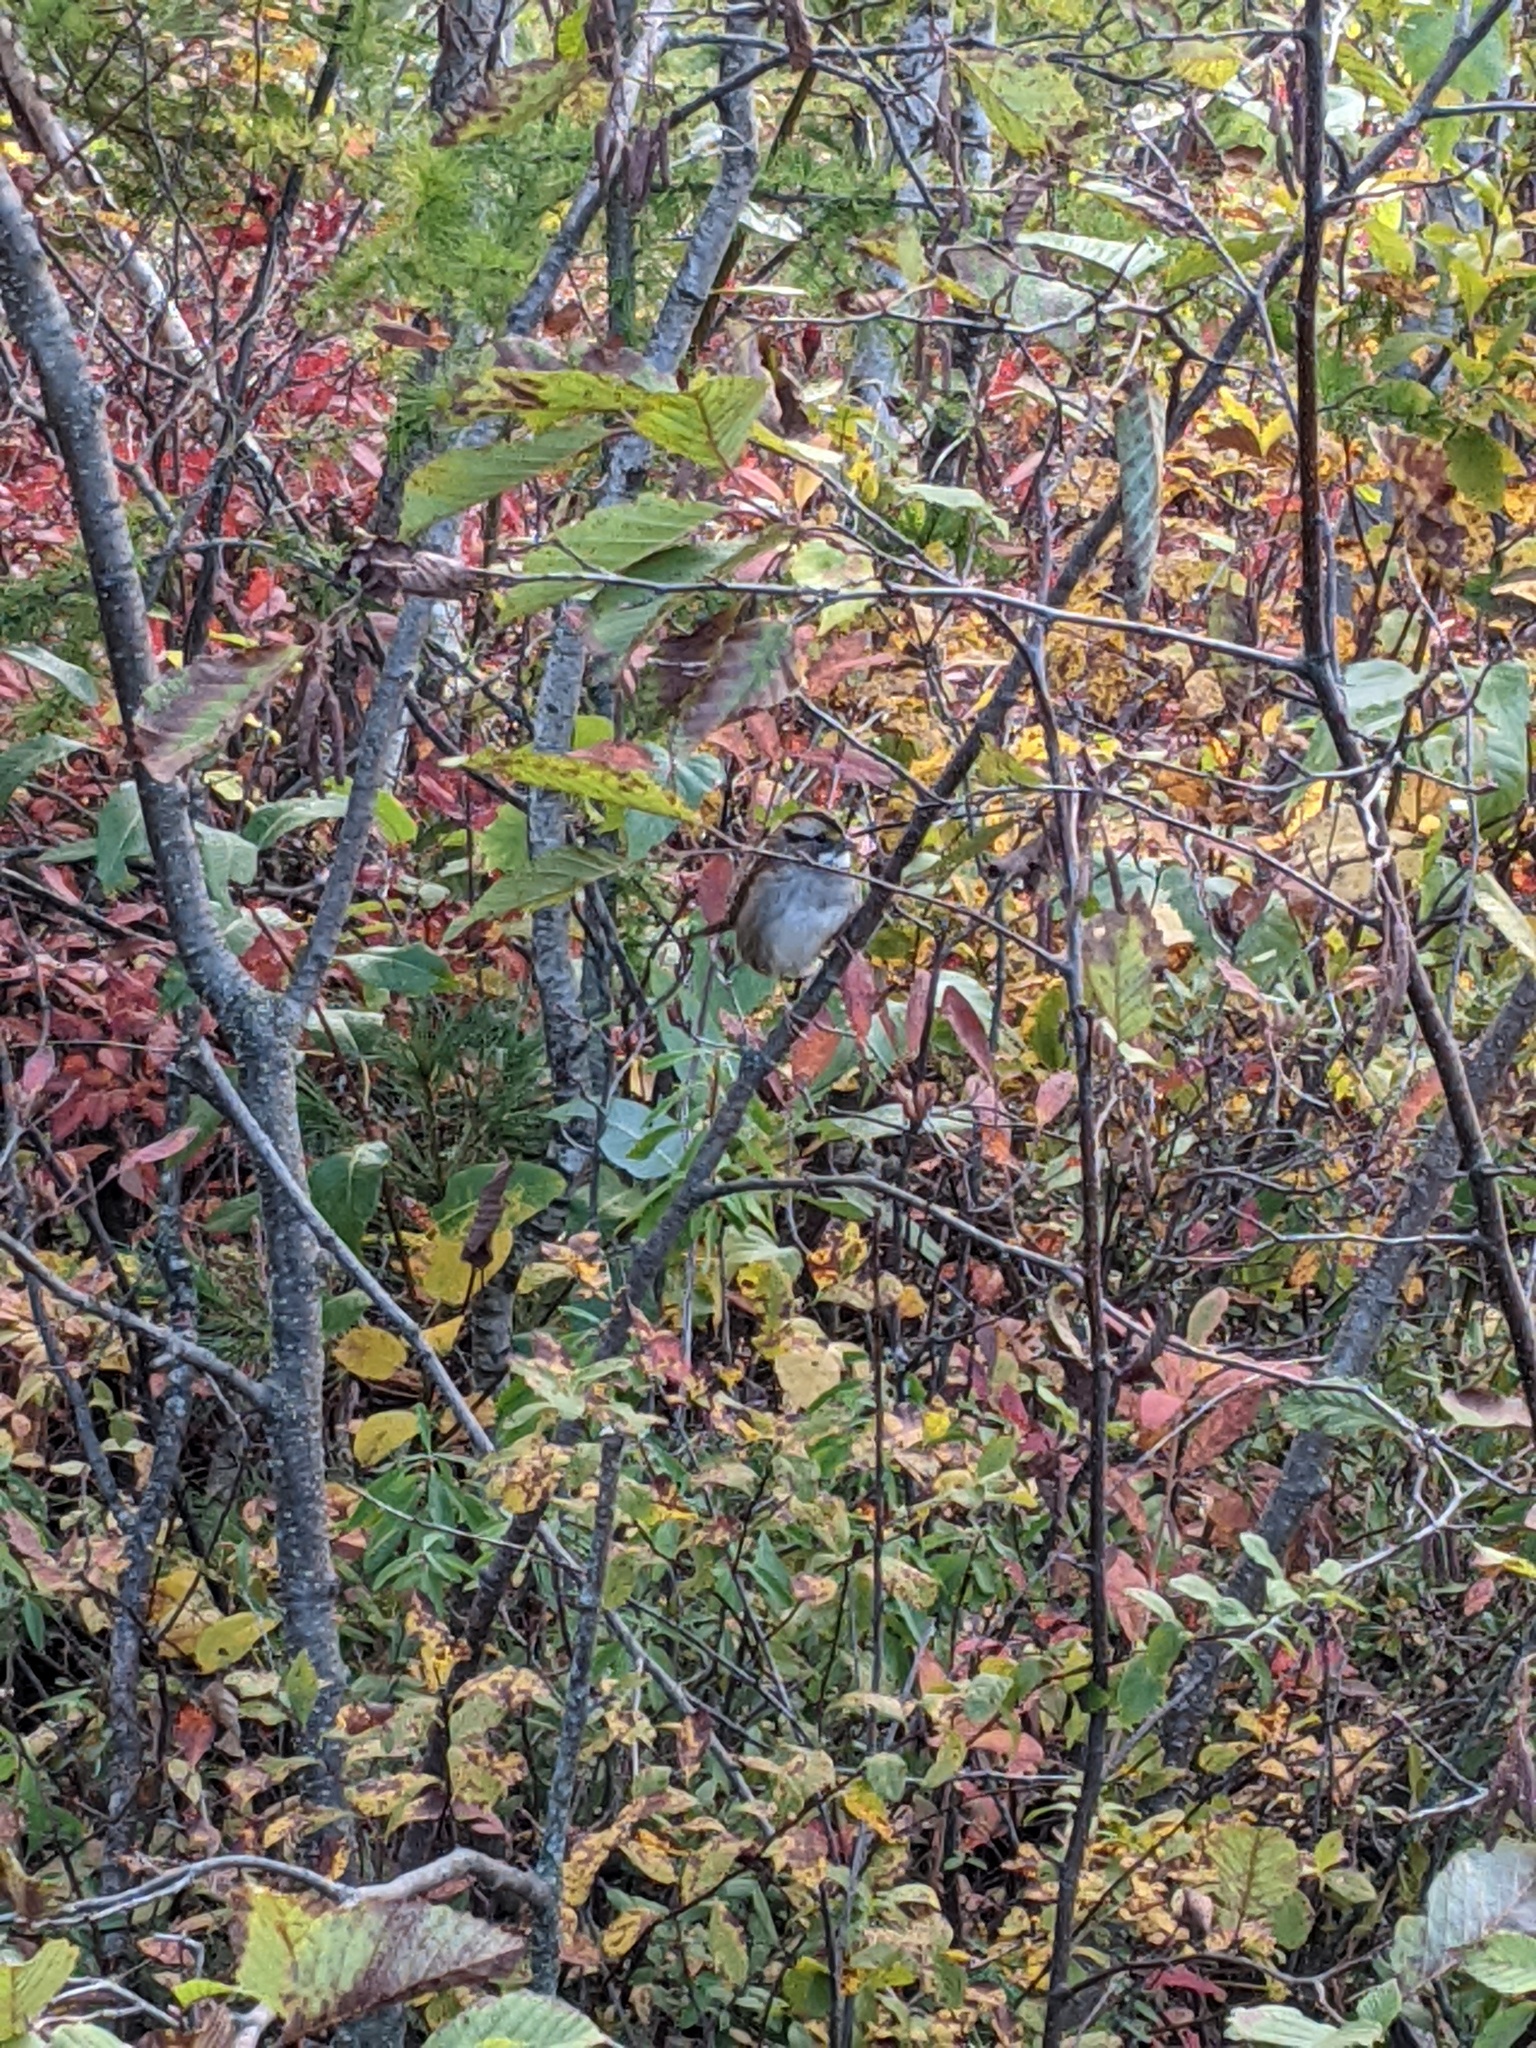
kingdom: Animalia
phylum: Chordata
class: Aves
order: Passeriformes
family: Passerellidae
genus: Zonotrichia
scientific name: Zonotrichia albicollis
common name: White-throated sparrow
